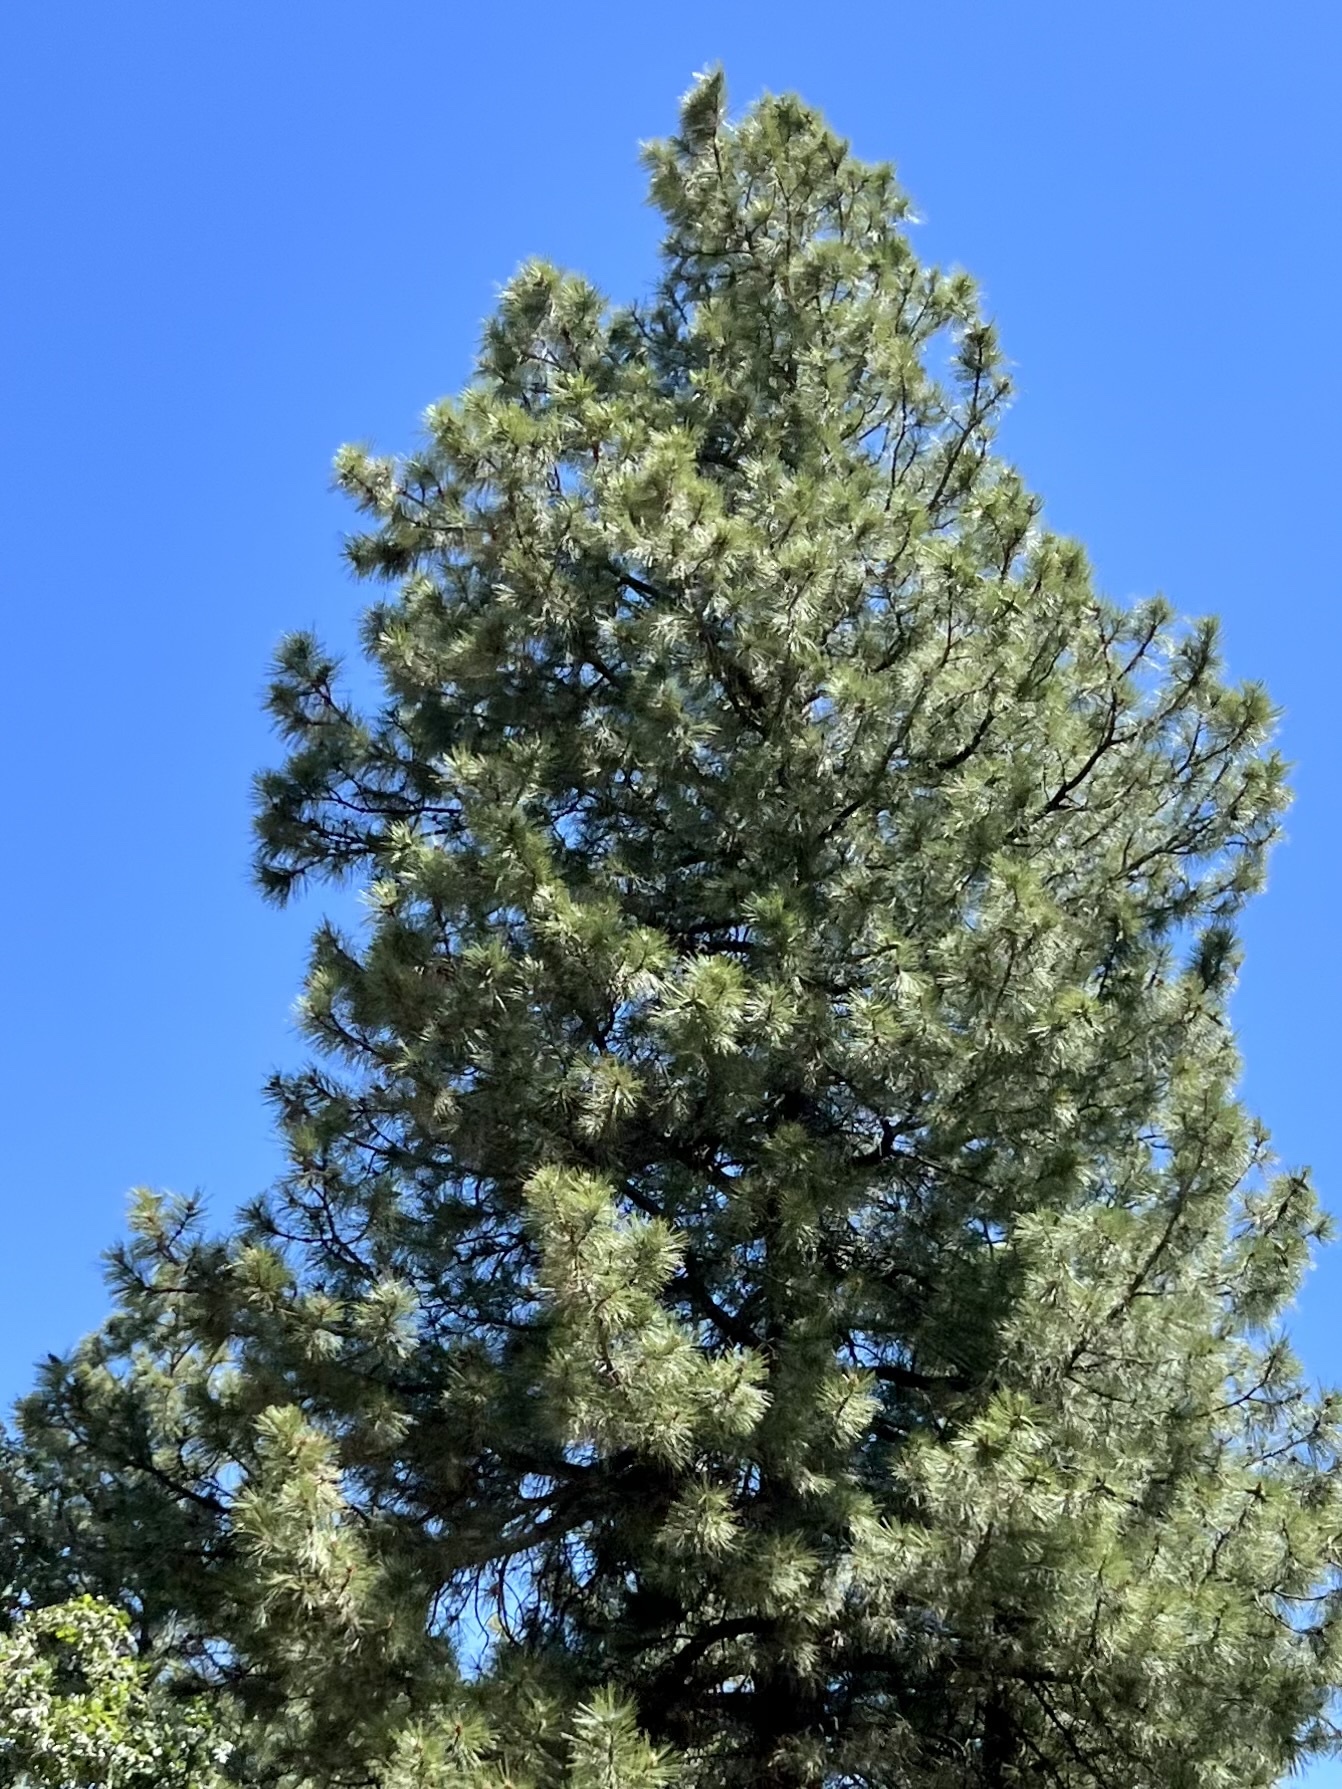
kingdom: Plantae
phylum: Tracheophyta
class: Pinopsida
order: Pinales
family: Pinaceae
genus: Pinus
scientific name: Pinus ponderosa
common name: Western yellow-pine
